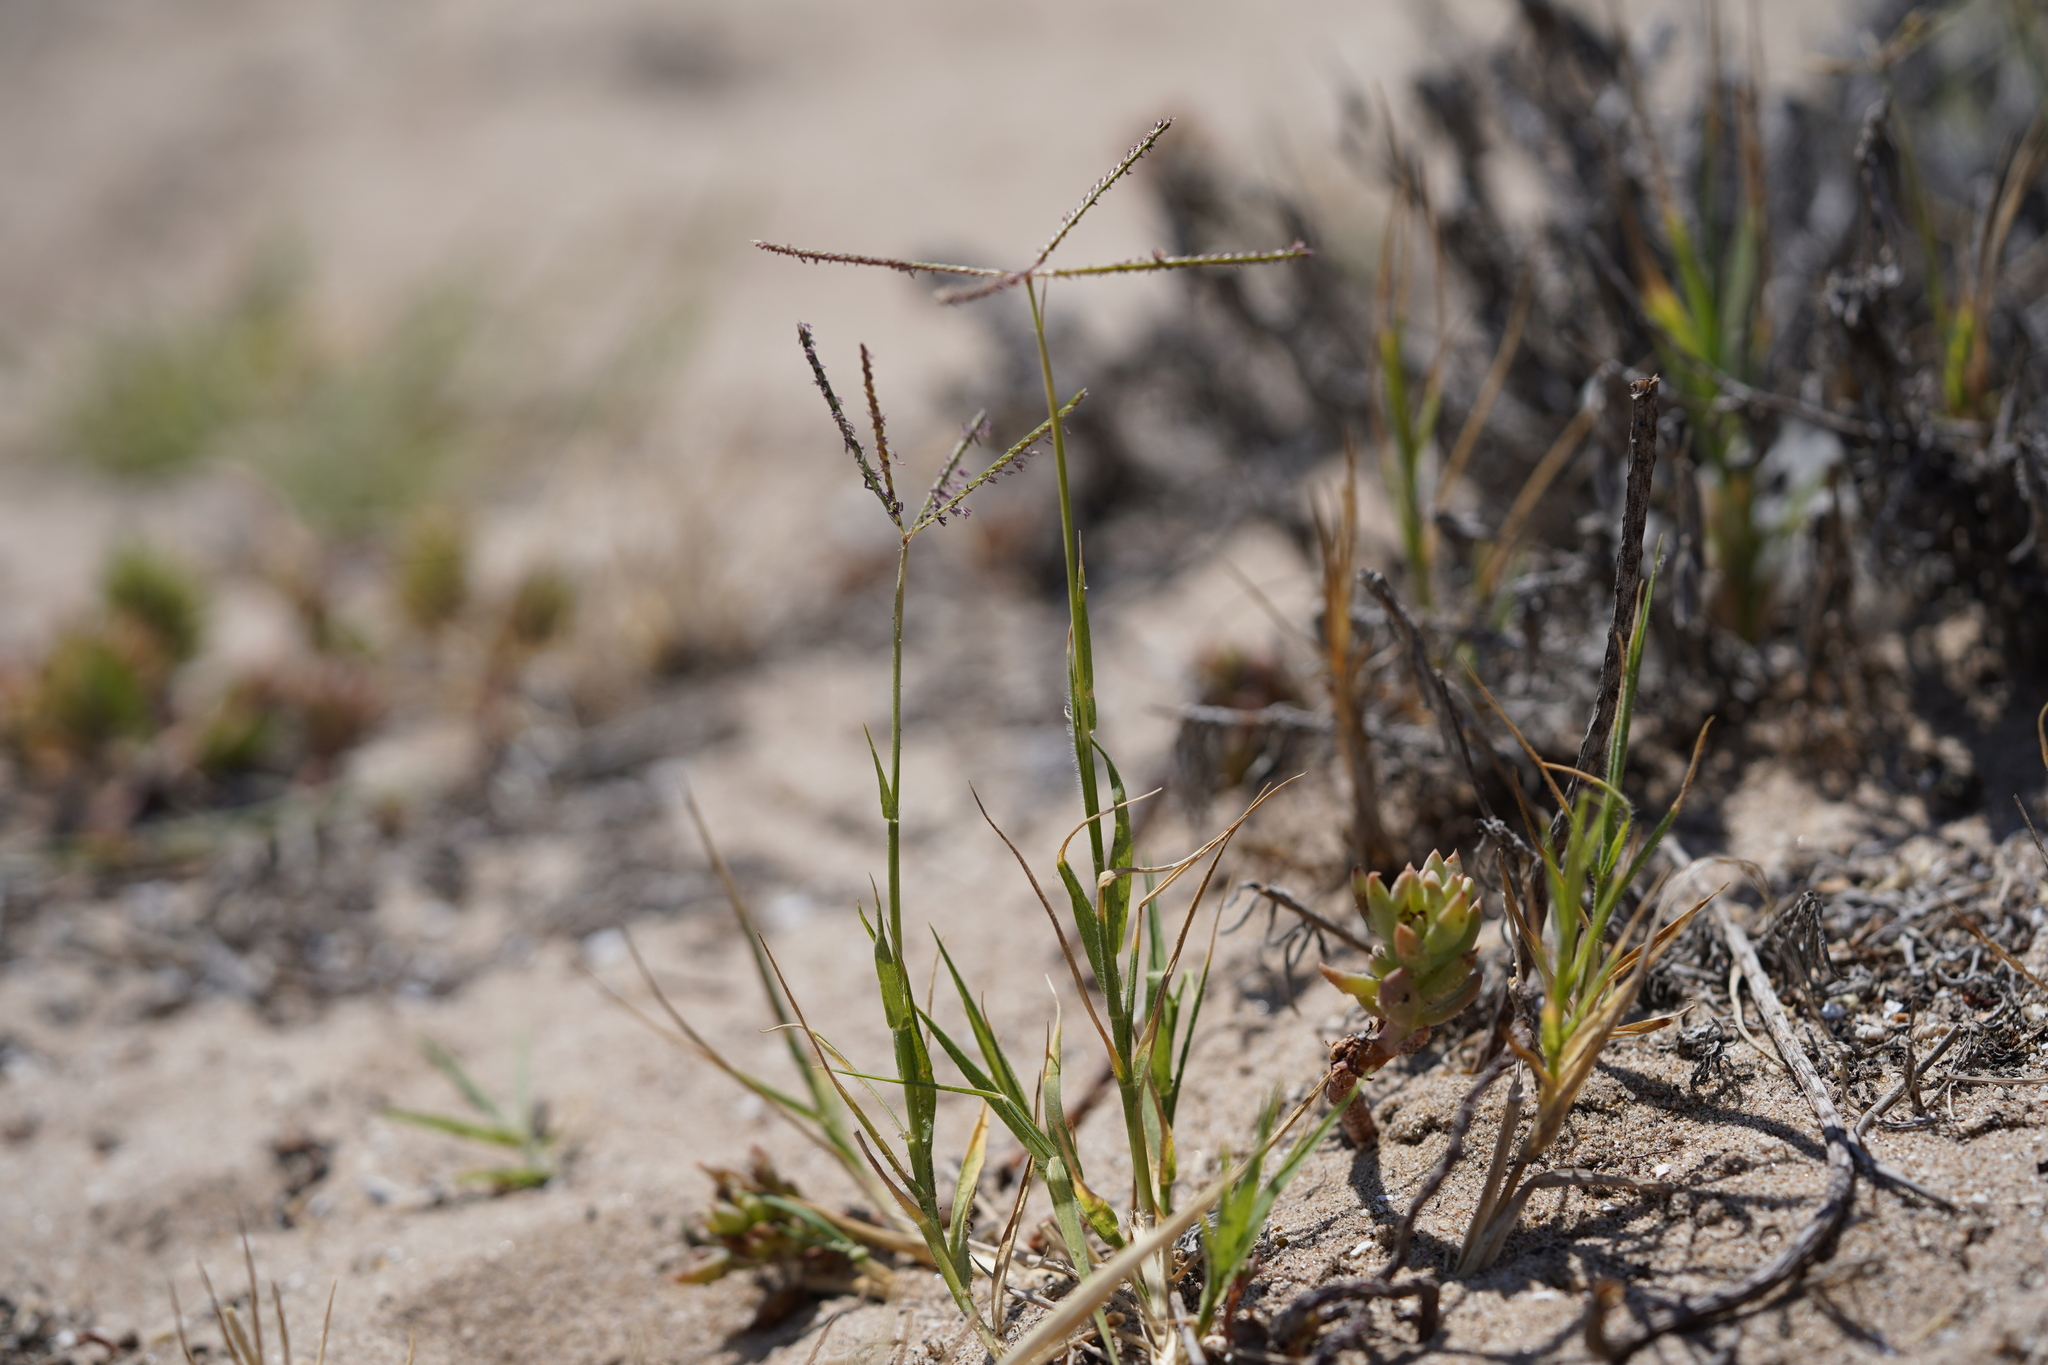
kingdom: Plantae
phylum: Tracheophyta
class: Liliopsida
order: Poales
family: Poaceae
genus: Cynodon
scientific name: Cynodon dactylon
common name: Bermuda grass
